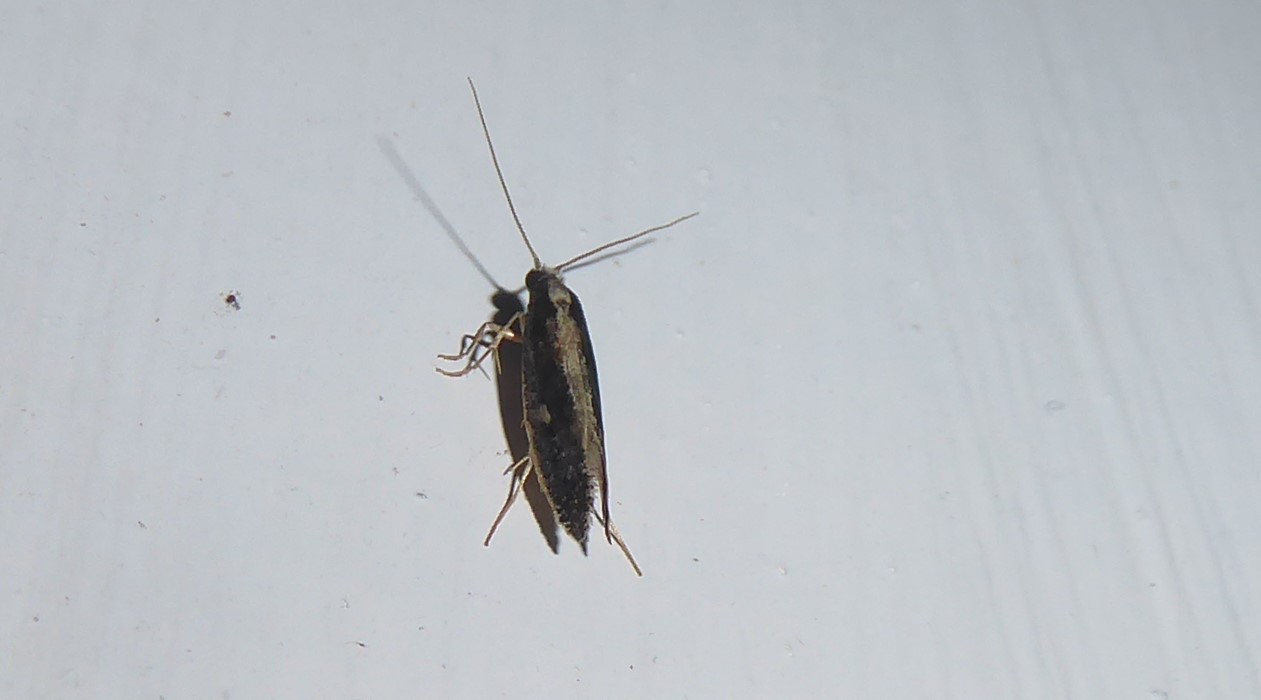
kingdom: Animalia
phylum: Arthropoda
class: Insecta
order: Lepidoptera
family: Tineidae
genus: Monopis
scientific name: Monopis ethelella
